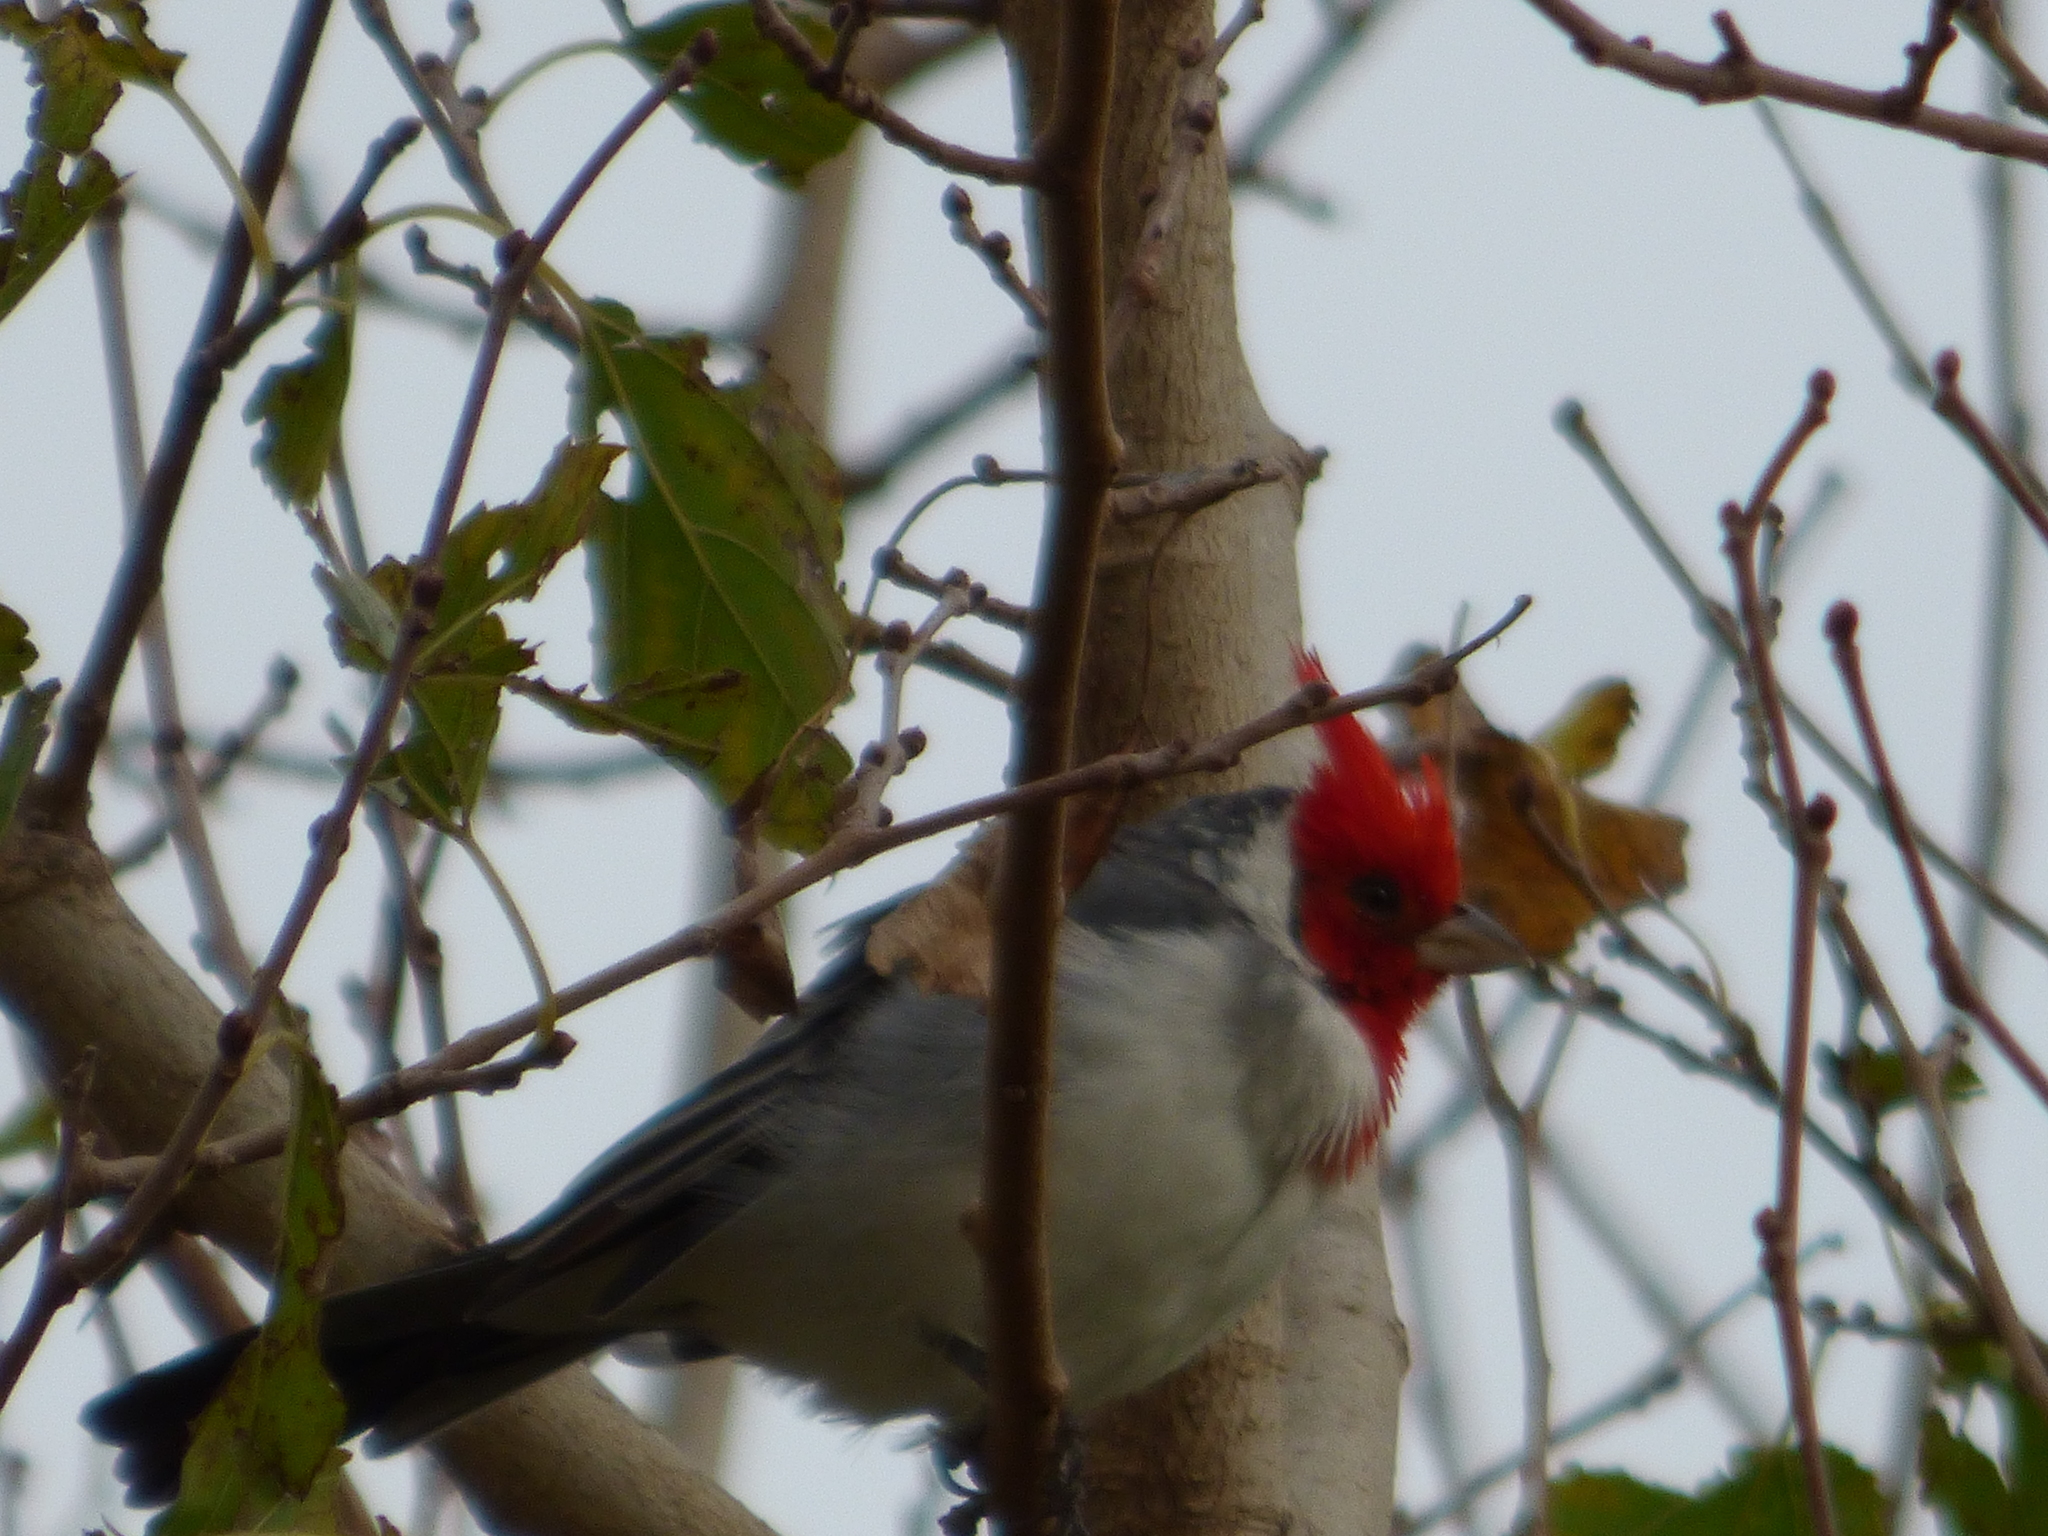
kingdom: Animalia
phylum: Chordata
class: Aves
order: Passeriformes
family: Thraupidae
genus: Paroaria
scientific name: Paroaria coronata
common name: Red-crested cardinal
